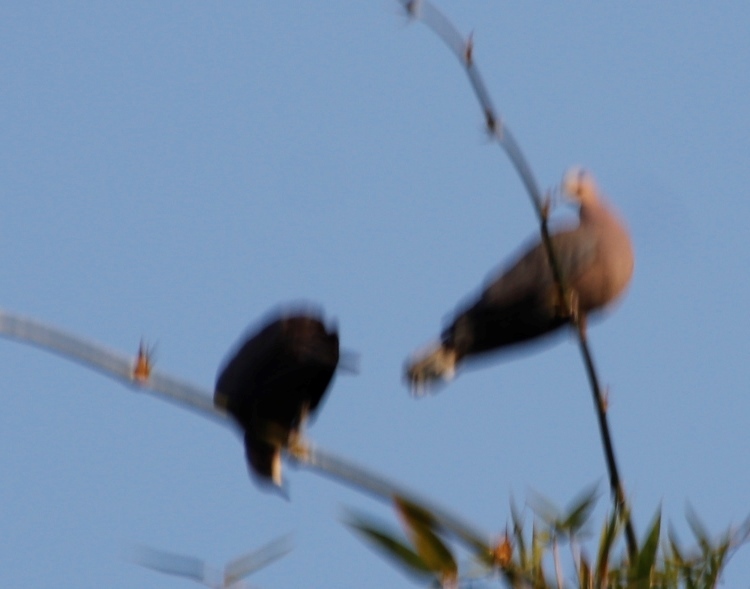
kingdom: Animalia
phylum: Chordata
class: Aves
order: Columbiformes
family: Columbidae
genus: Streptopelia
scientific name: Streptopelia semitorquata
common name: Red-eyed dove
